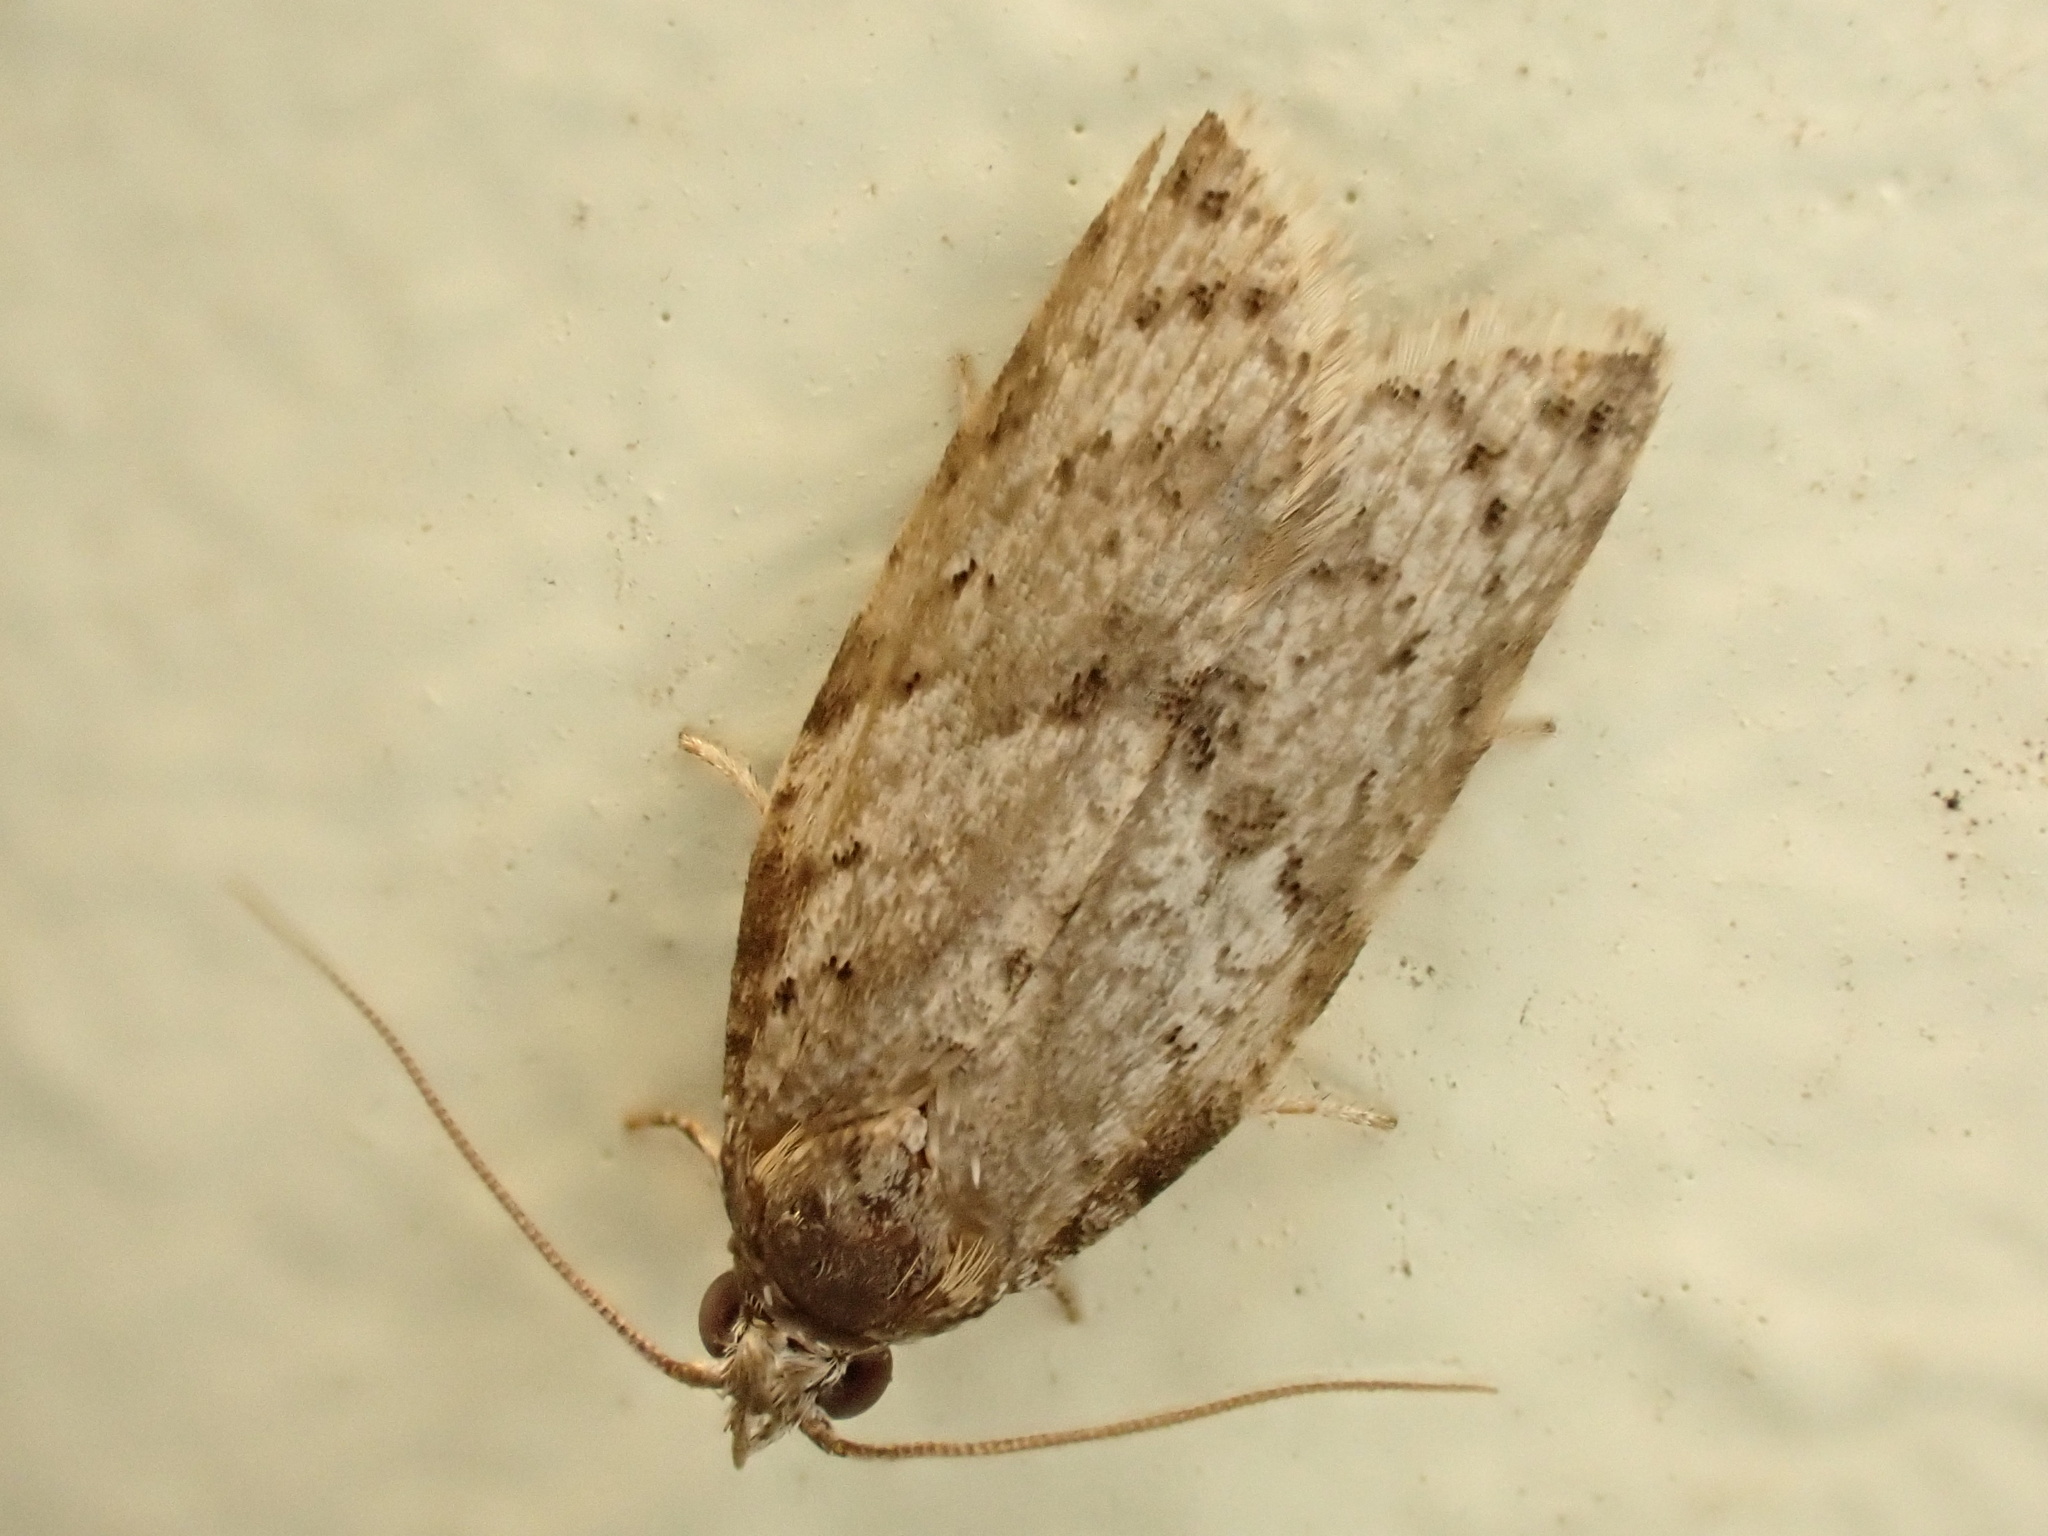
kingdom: Animalia
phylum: Arthropoda
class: Insecta
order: Lepidoptera
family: Tortricidae
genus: Isotenes
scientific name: Isotenes miserana
